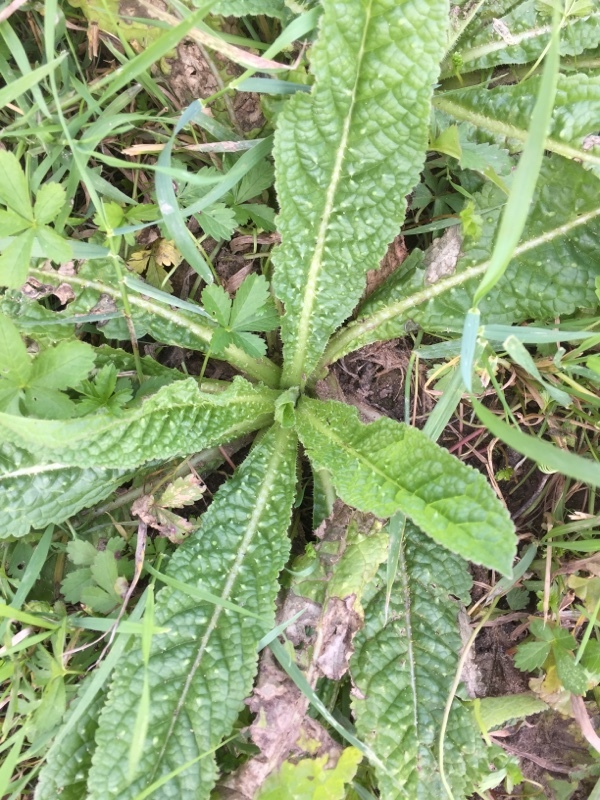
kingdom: Plantae
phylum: Tracheophyta
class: Magnoliopsida
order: Dipsacales
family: Caprifoliaceae
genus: Dipsacus
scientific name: Dipsacus fullonum
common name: Teasel
